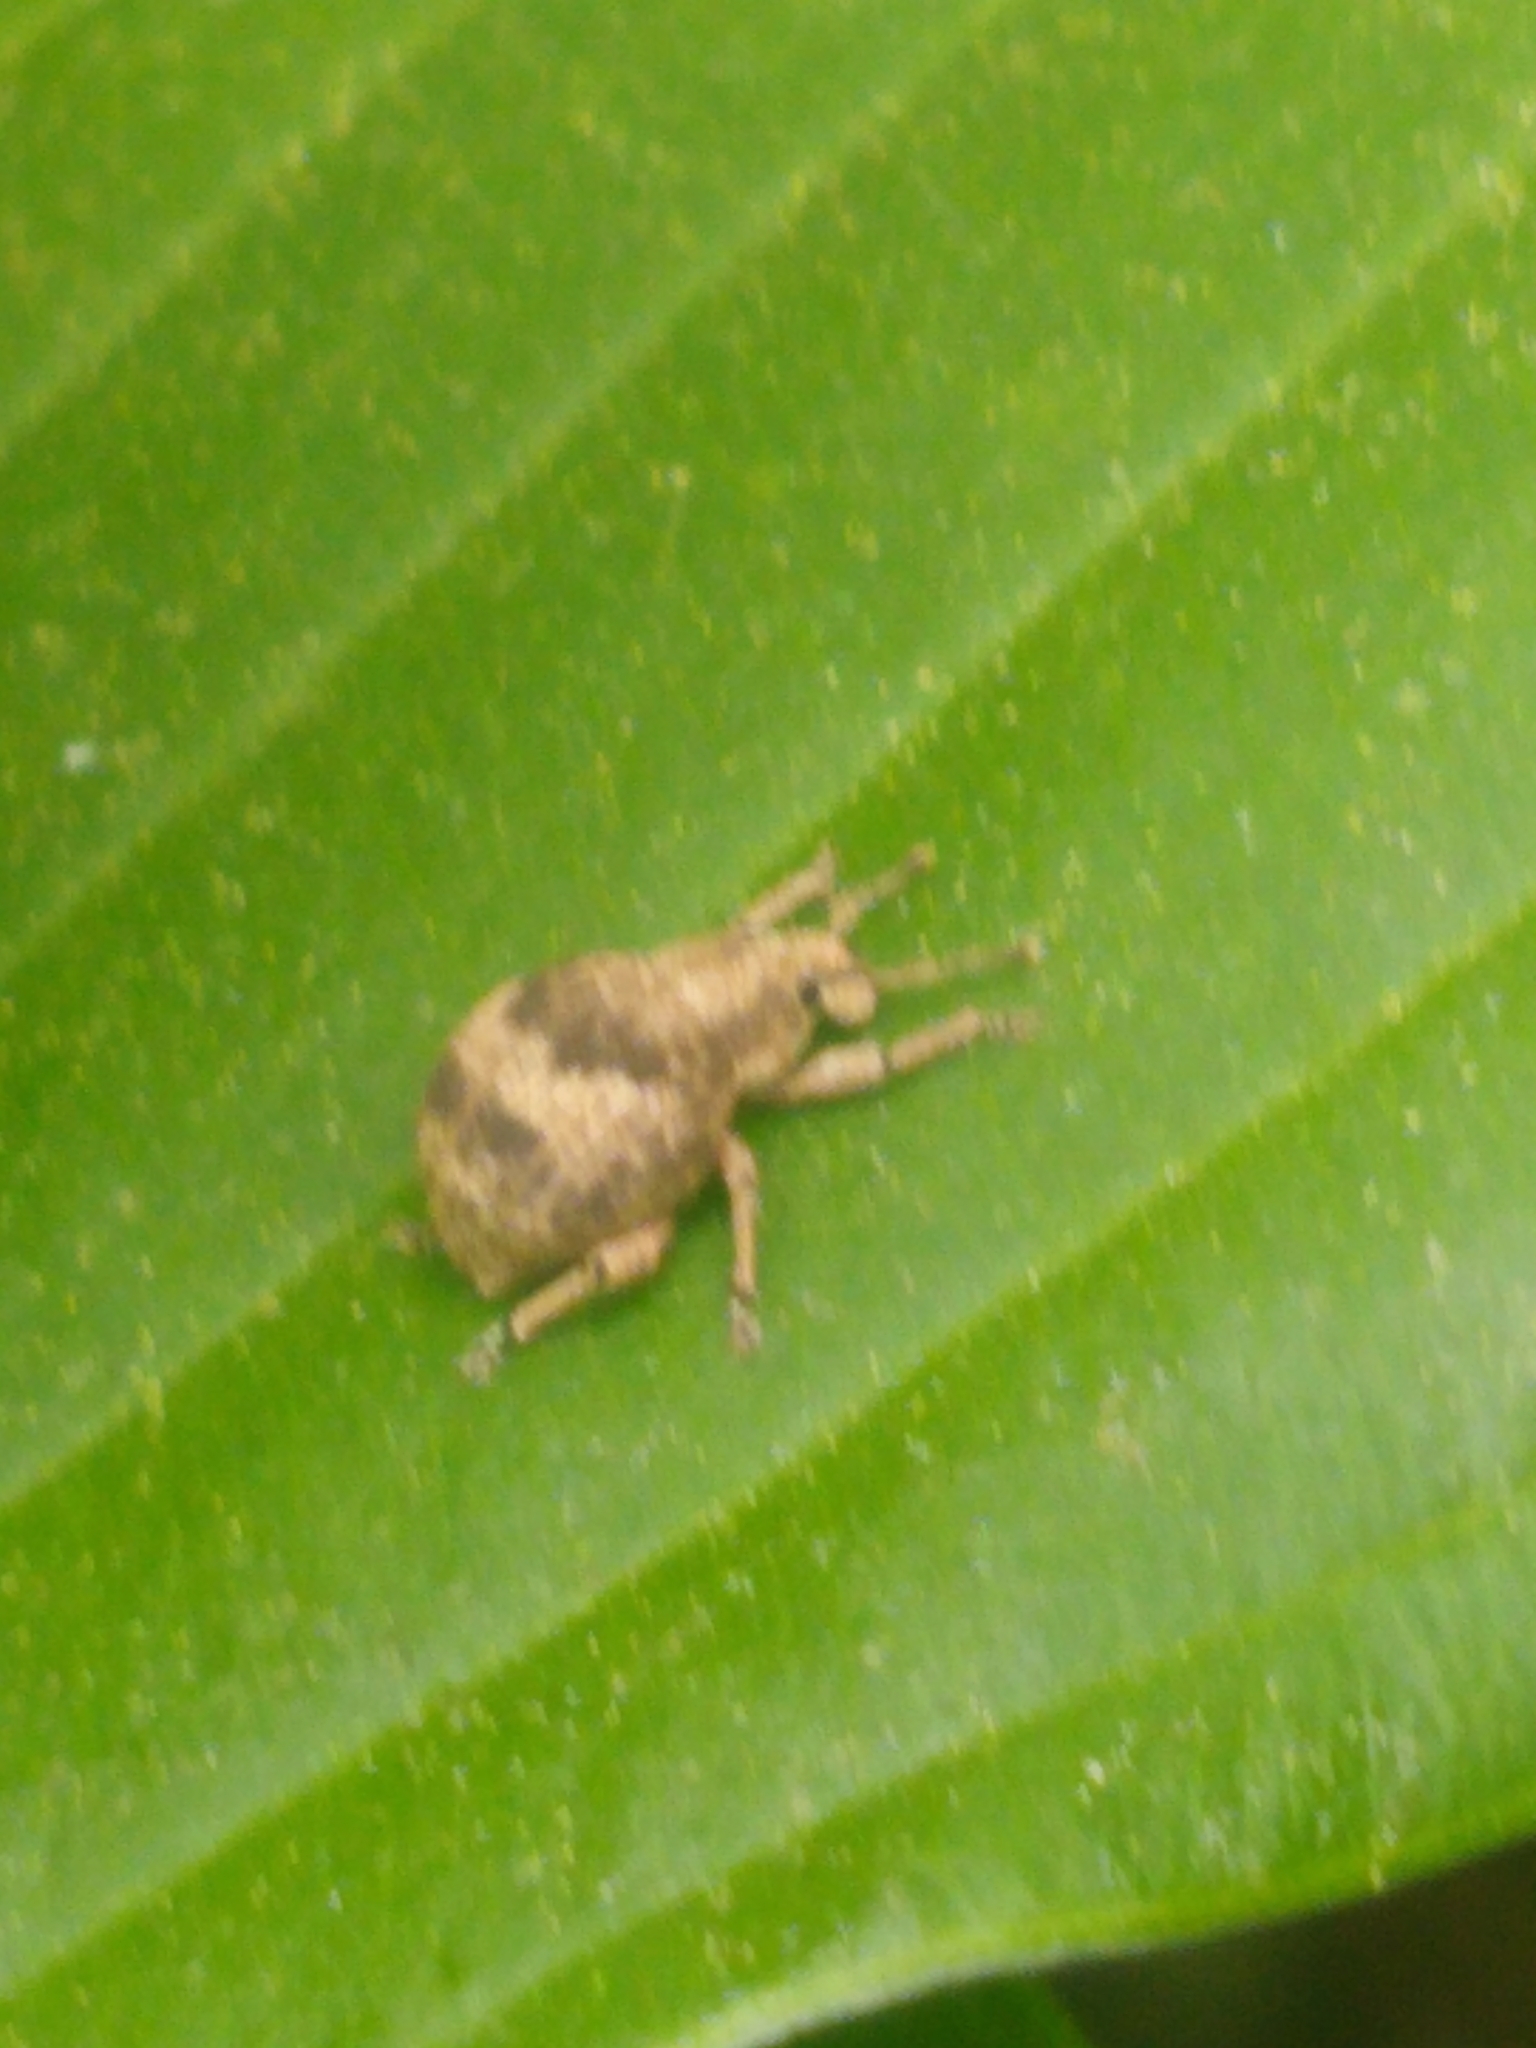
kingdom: Animalia
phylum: Arthropoda
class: Insecta
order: Coleoptera
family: Curculionidae
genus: Pseudocneorhinus
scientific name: Pseudocneorhinus bifasciatus
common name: Two-banded japanese weevil
